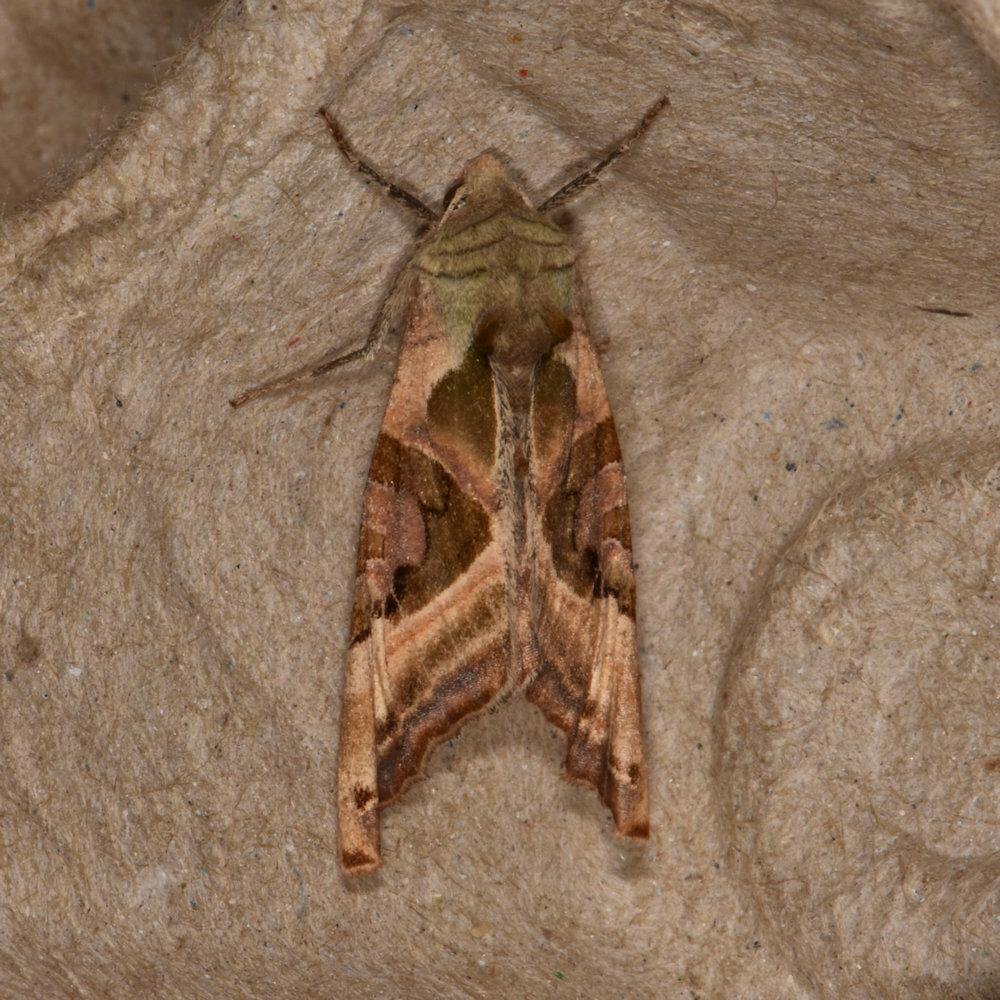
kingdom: Animalia
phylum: Arthropoda
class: Insecta
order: Lepidoptera
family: Noctuidae
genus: Phlogophora
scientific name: Phlogophora iris
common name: Olive angle shades
